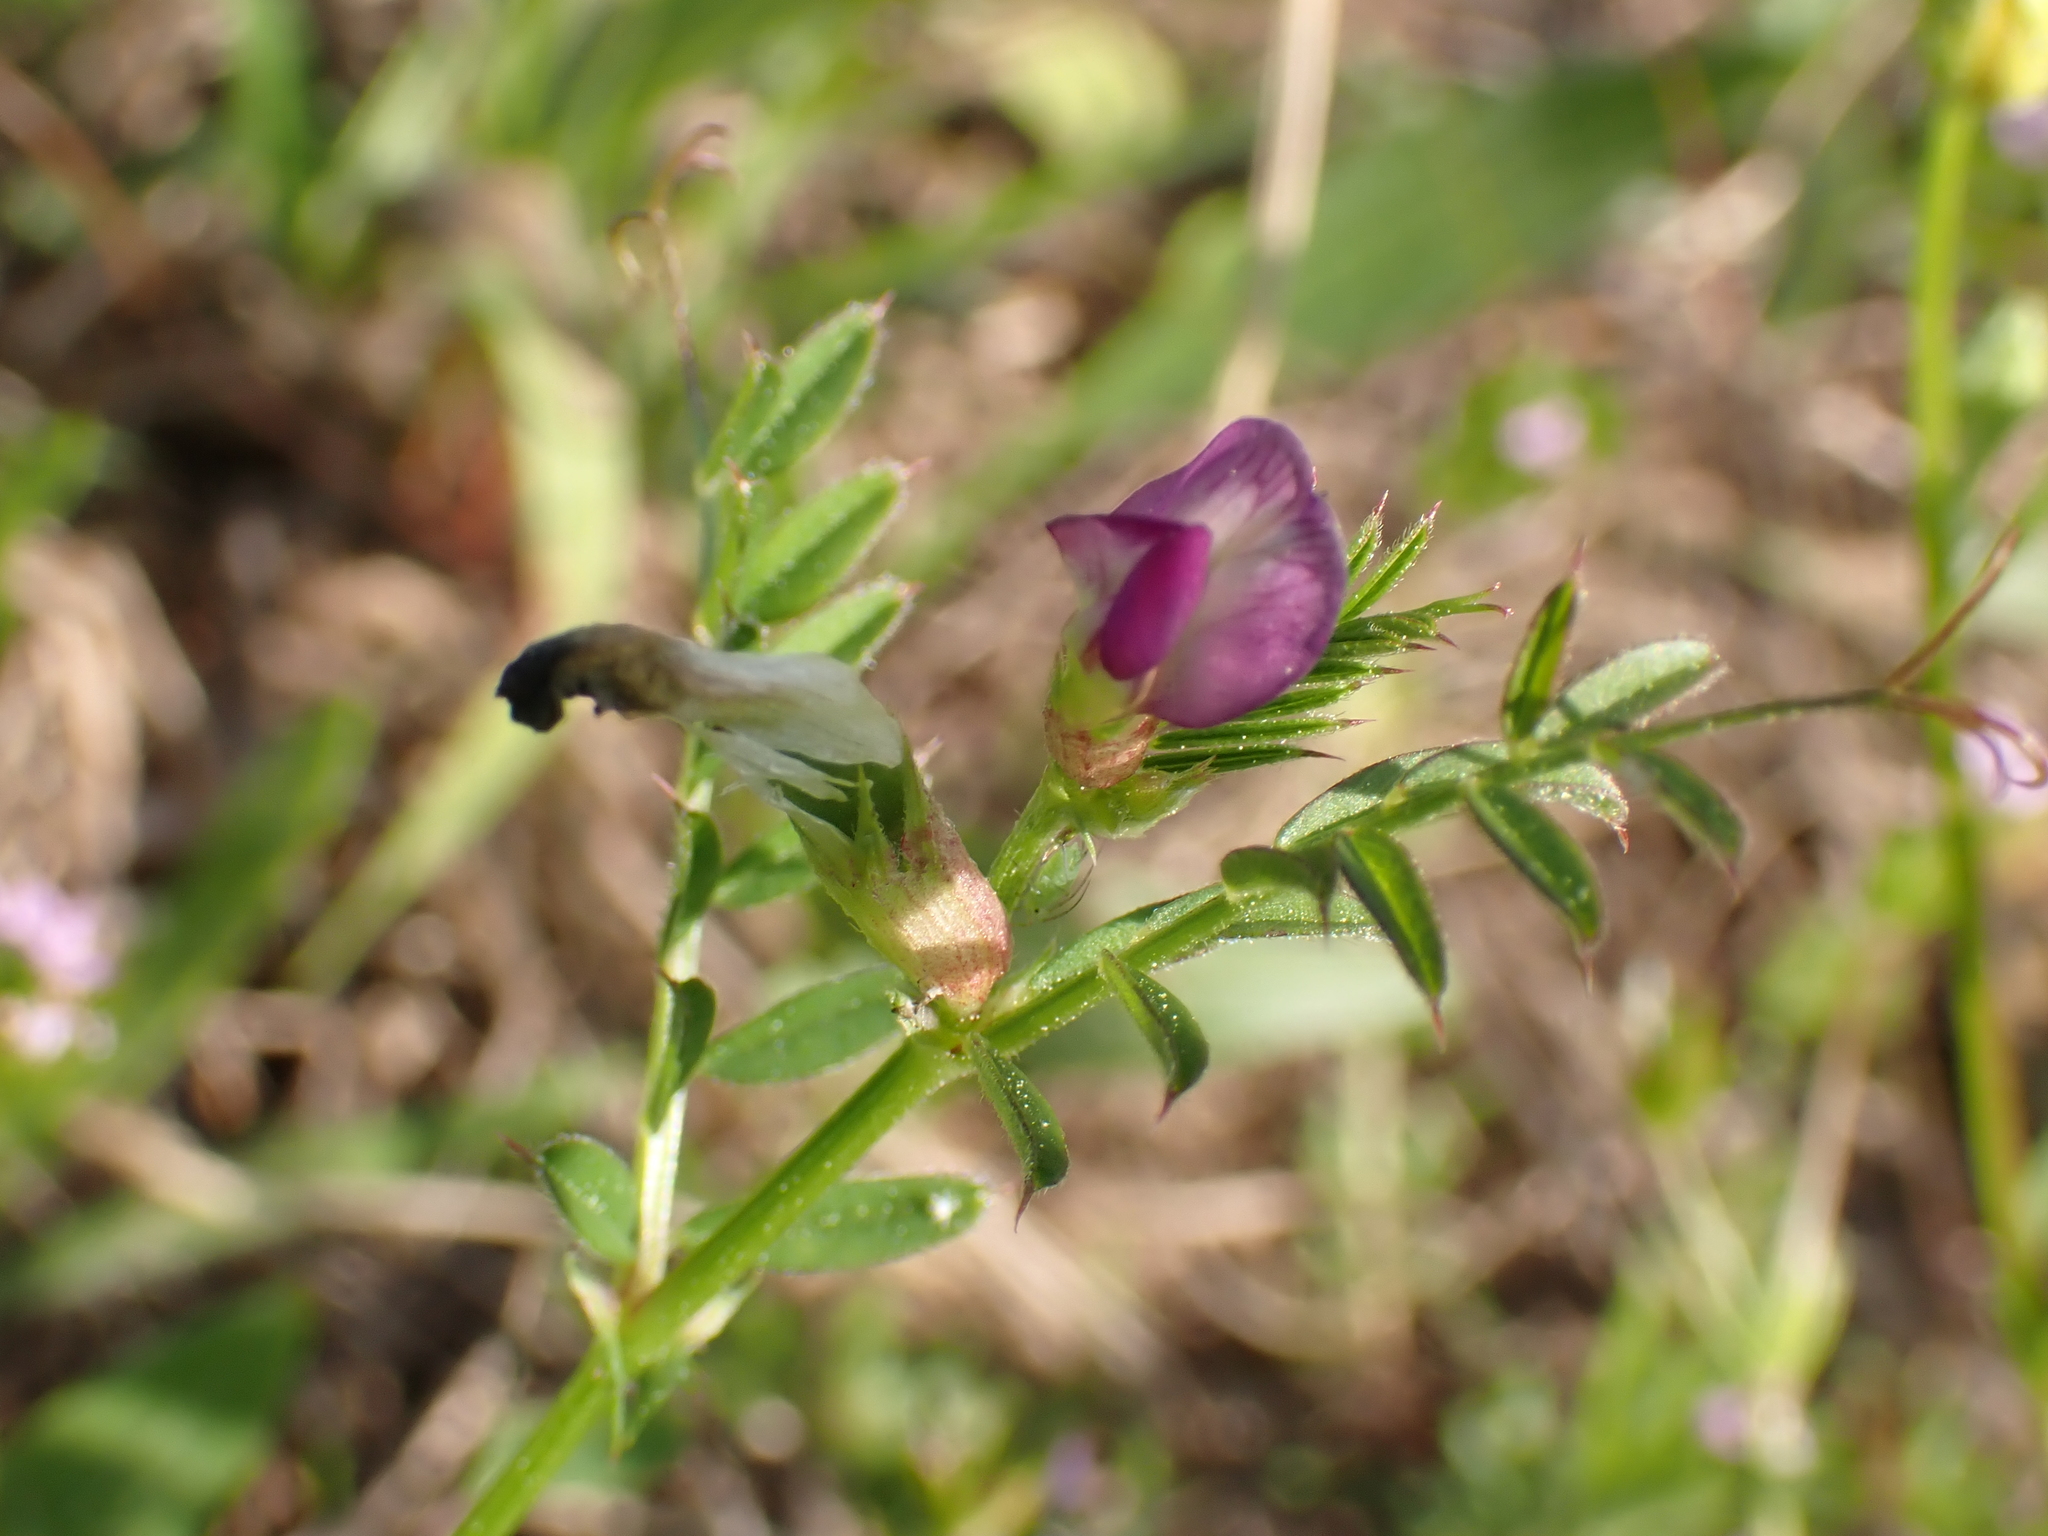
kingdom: Plantae
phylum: Tracheophyta
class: Magnoliopsida
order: Fabales
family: Fabaceae
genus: Vicia
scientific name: Vicia sativa
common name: Garden vetch
